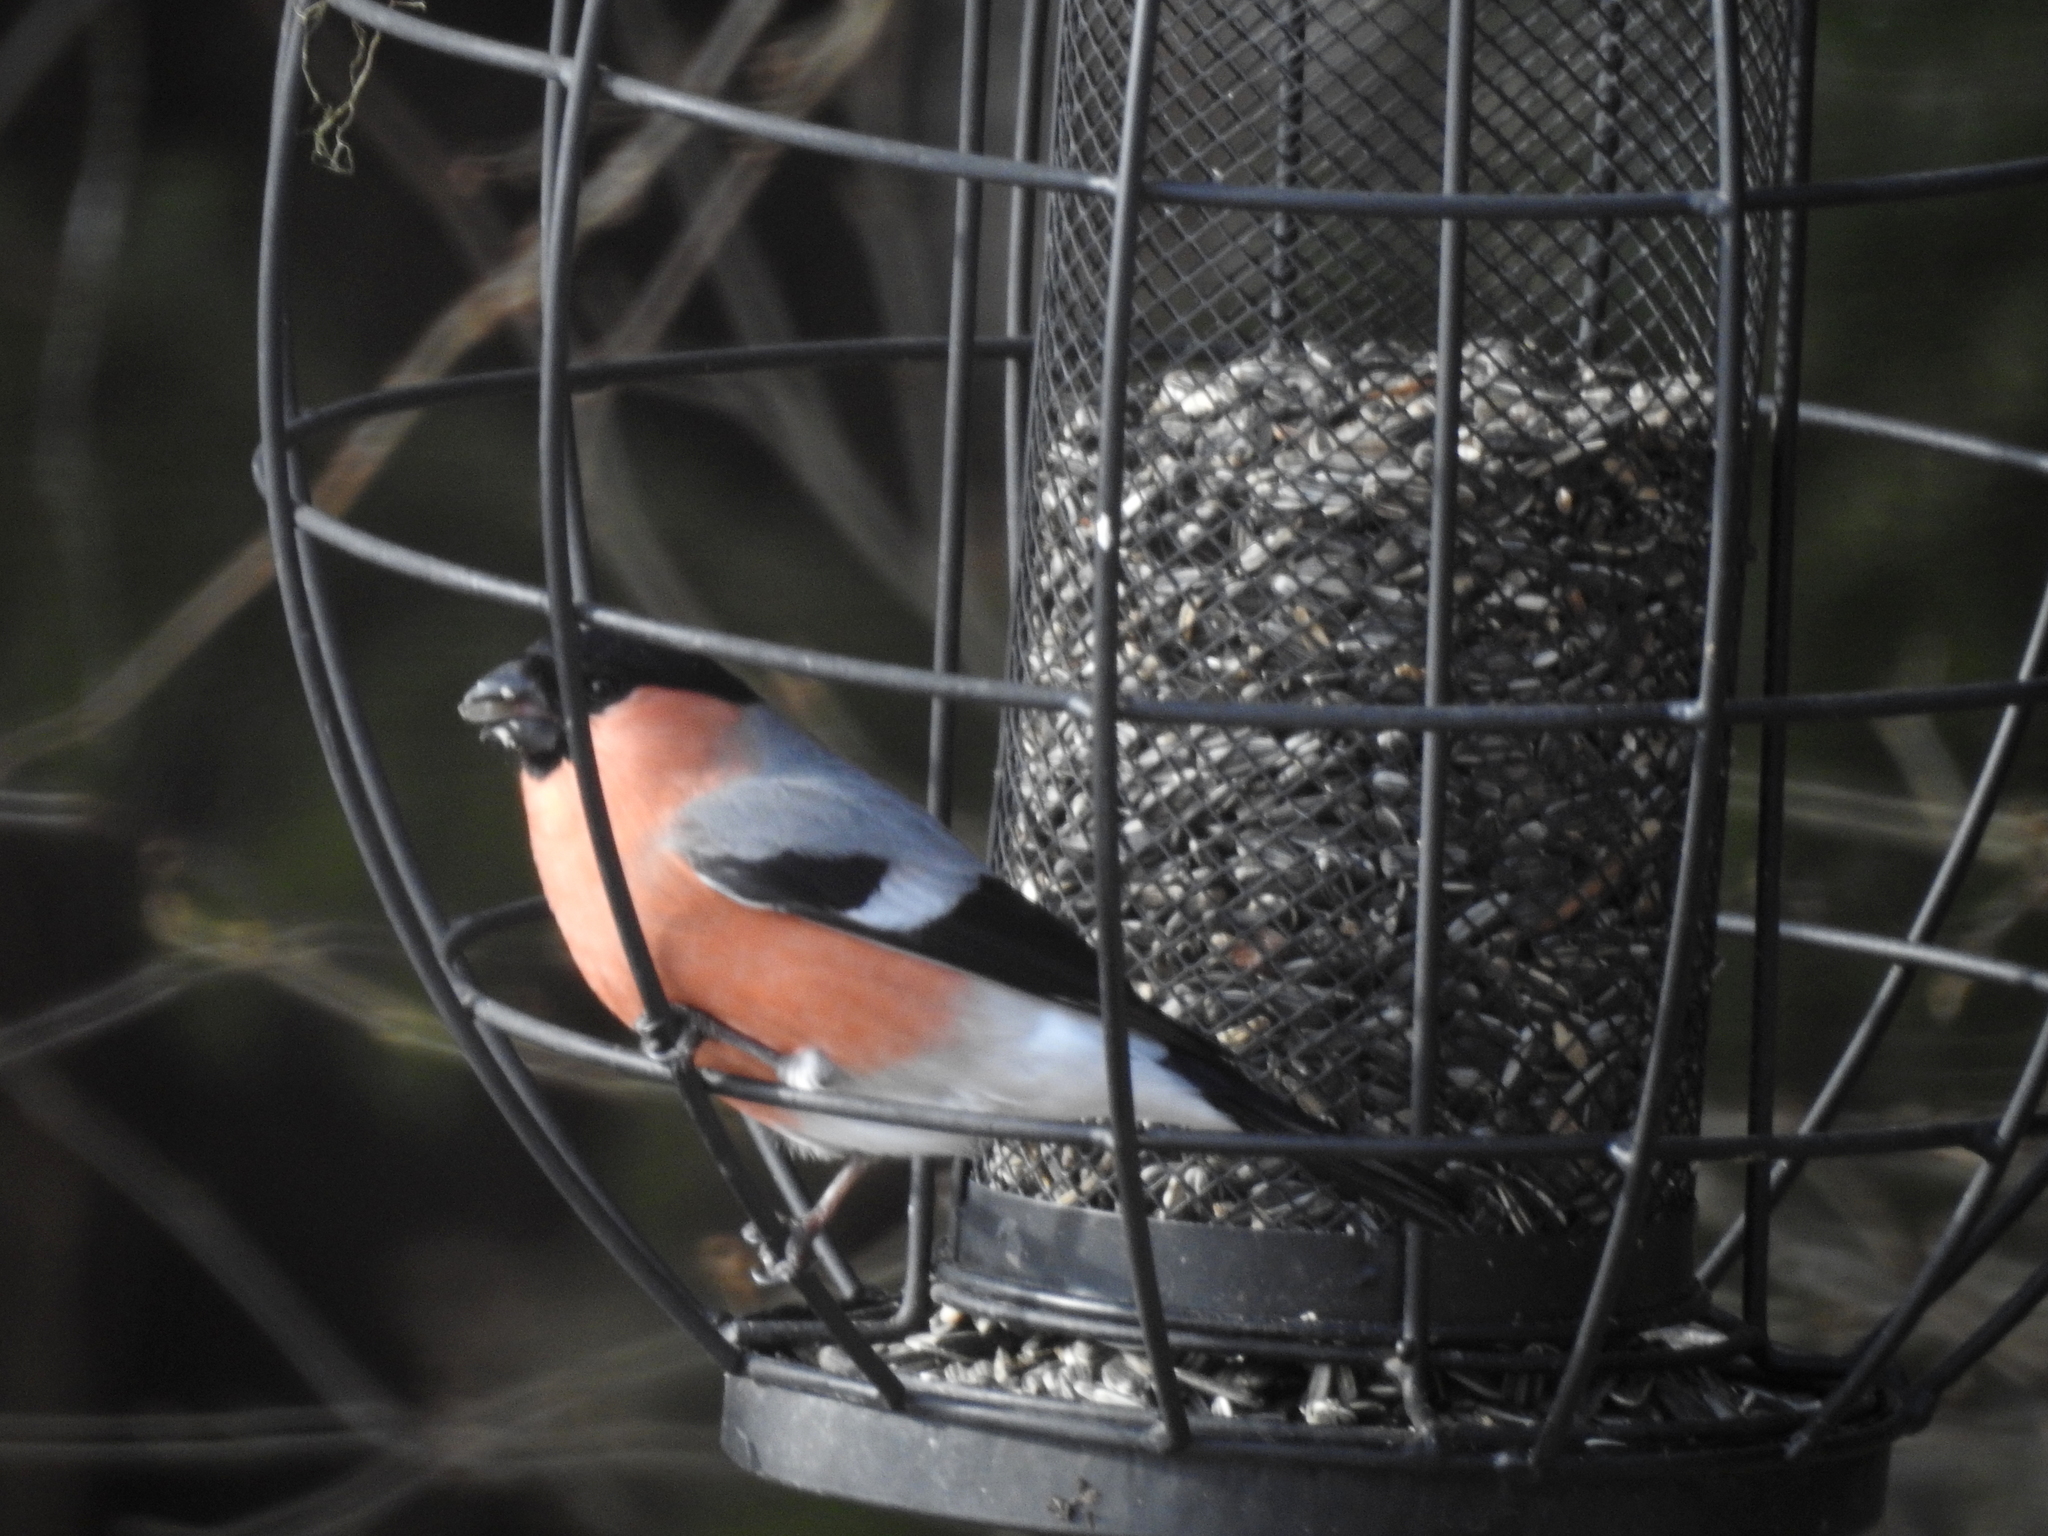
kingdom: Animalia
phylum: Chordata
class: Aves
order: Passeriformes
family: Fringillidae
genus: Pyrrhula
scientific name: Pyrrhula pyrrhula
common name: Eurasian bullfinch
